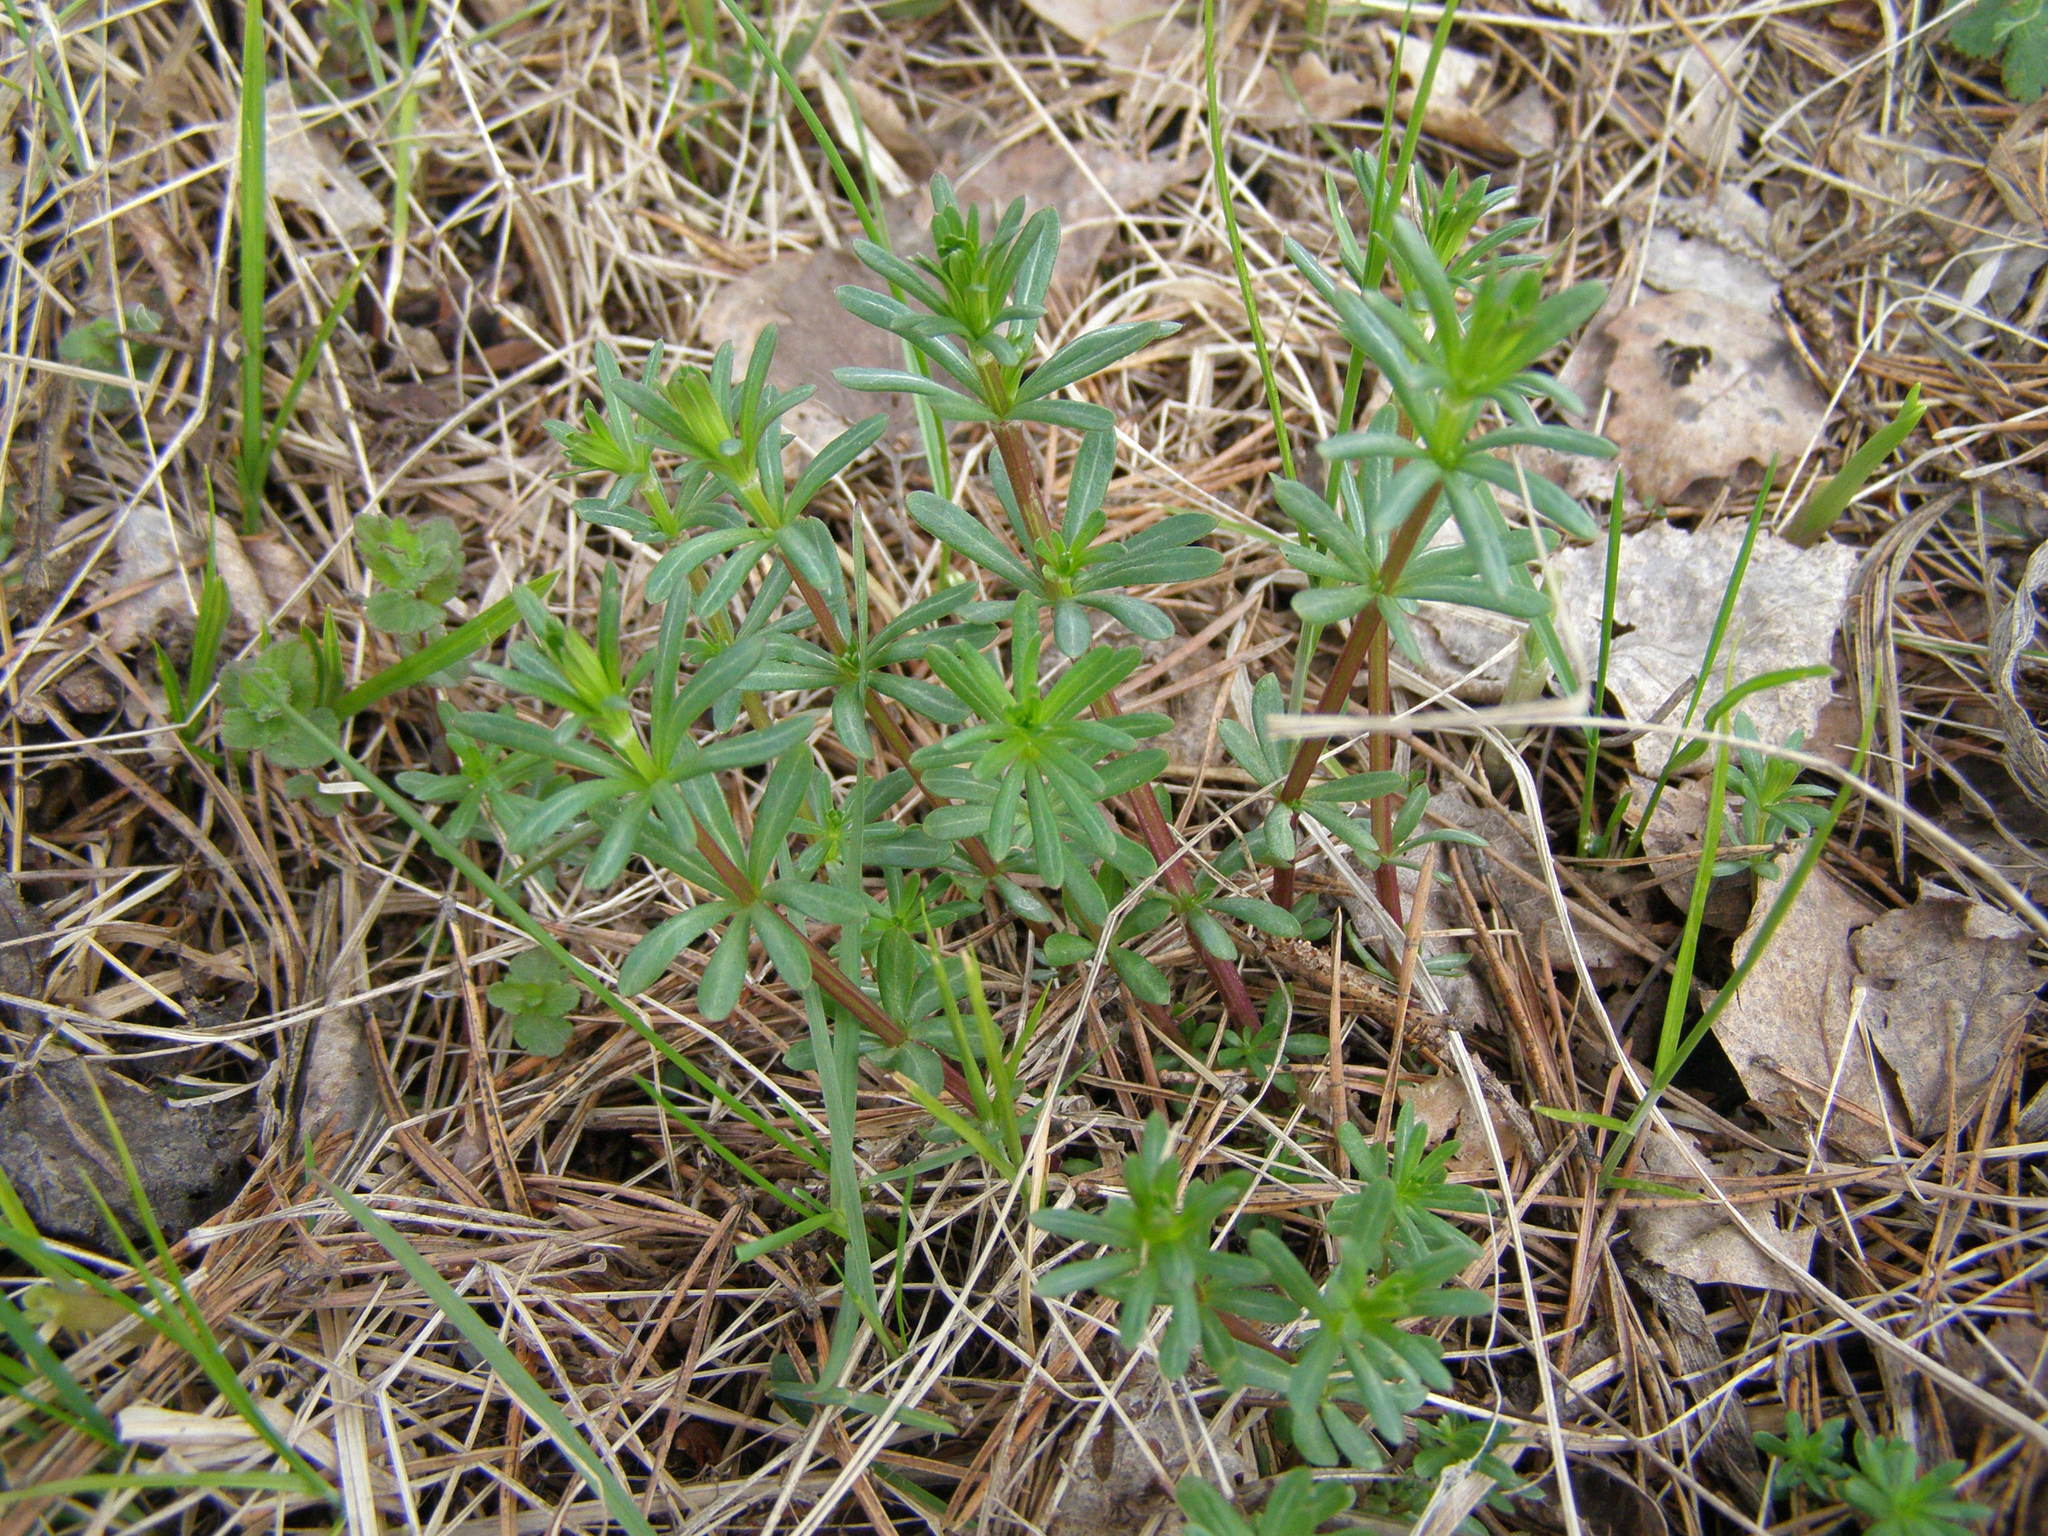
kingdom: Plantae
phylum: Tracheophyta
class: Magnoliopsida
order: Gentianales
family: Rubiaceae
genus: Galium
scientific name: Galium mollugo
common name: Hedge bedstraw
